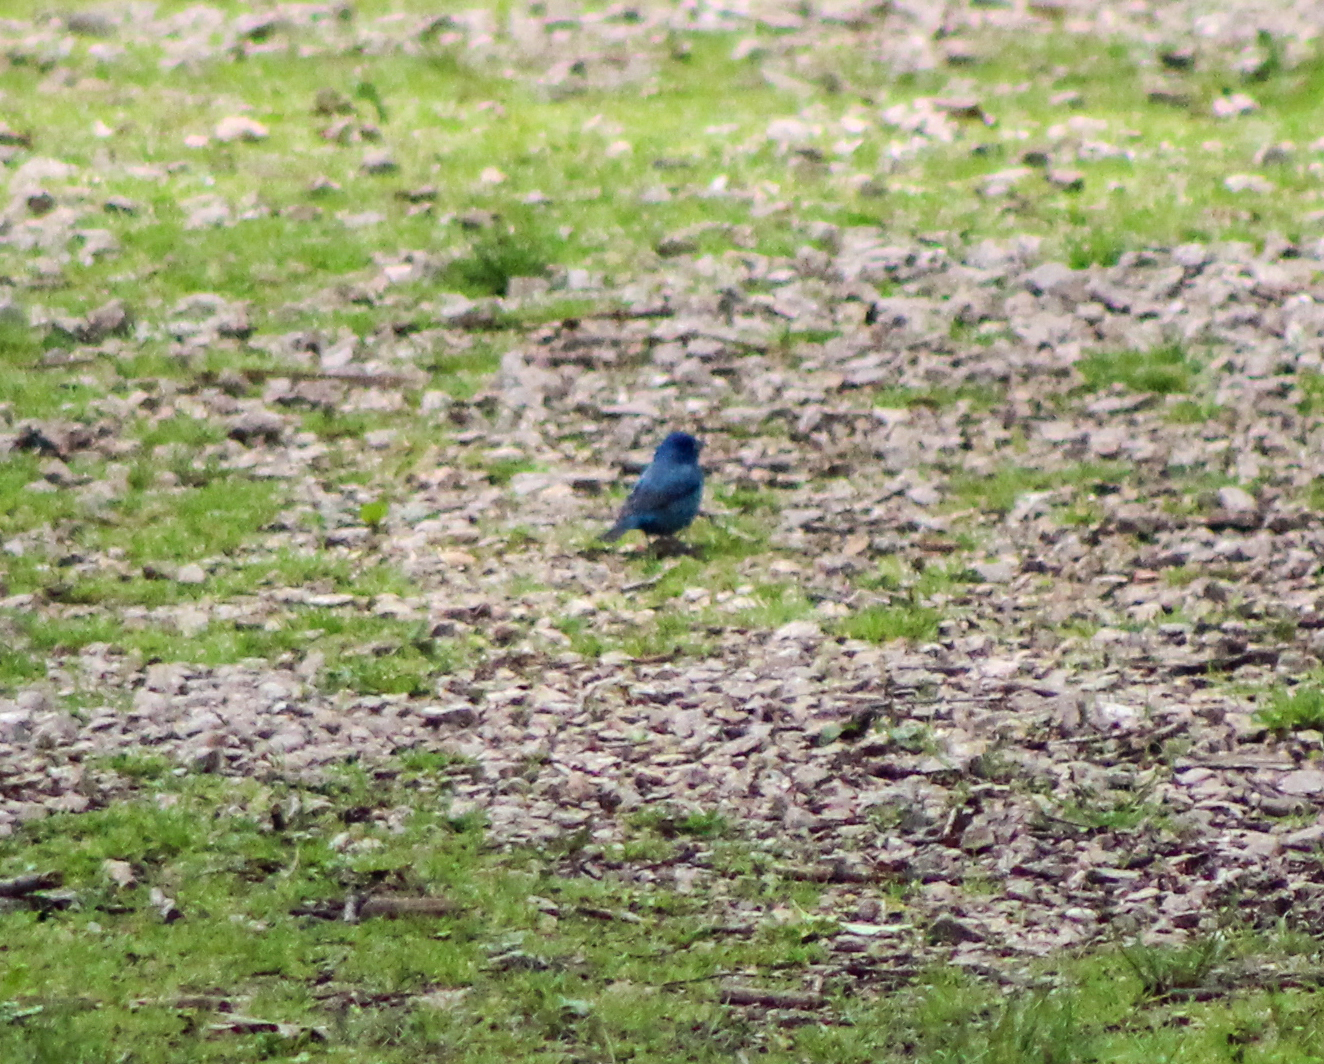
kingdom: Animalia
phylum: Chordata
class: Aves
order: Passeriformes
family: Cardinalidae
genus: Passerina
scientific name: Passerina cyanea
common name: Indigo bunting
